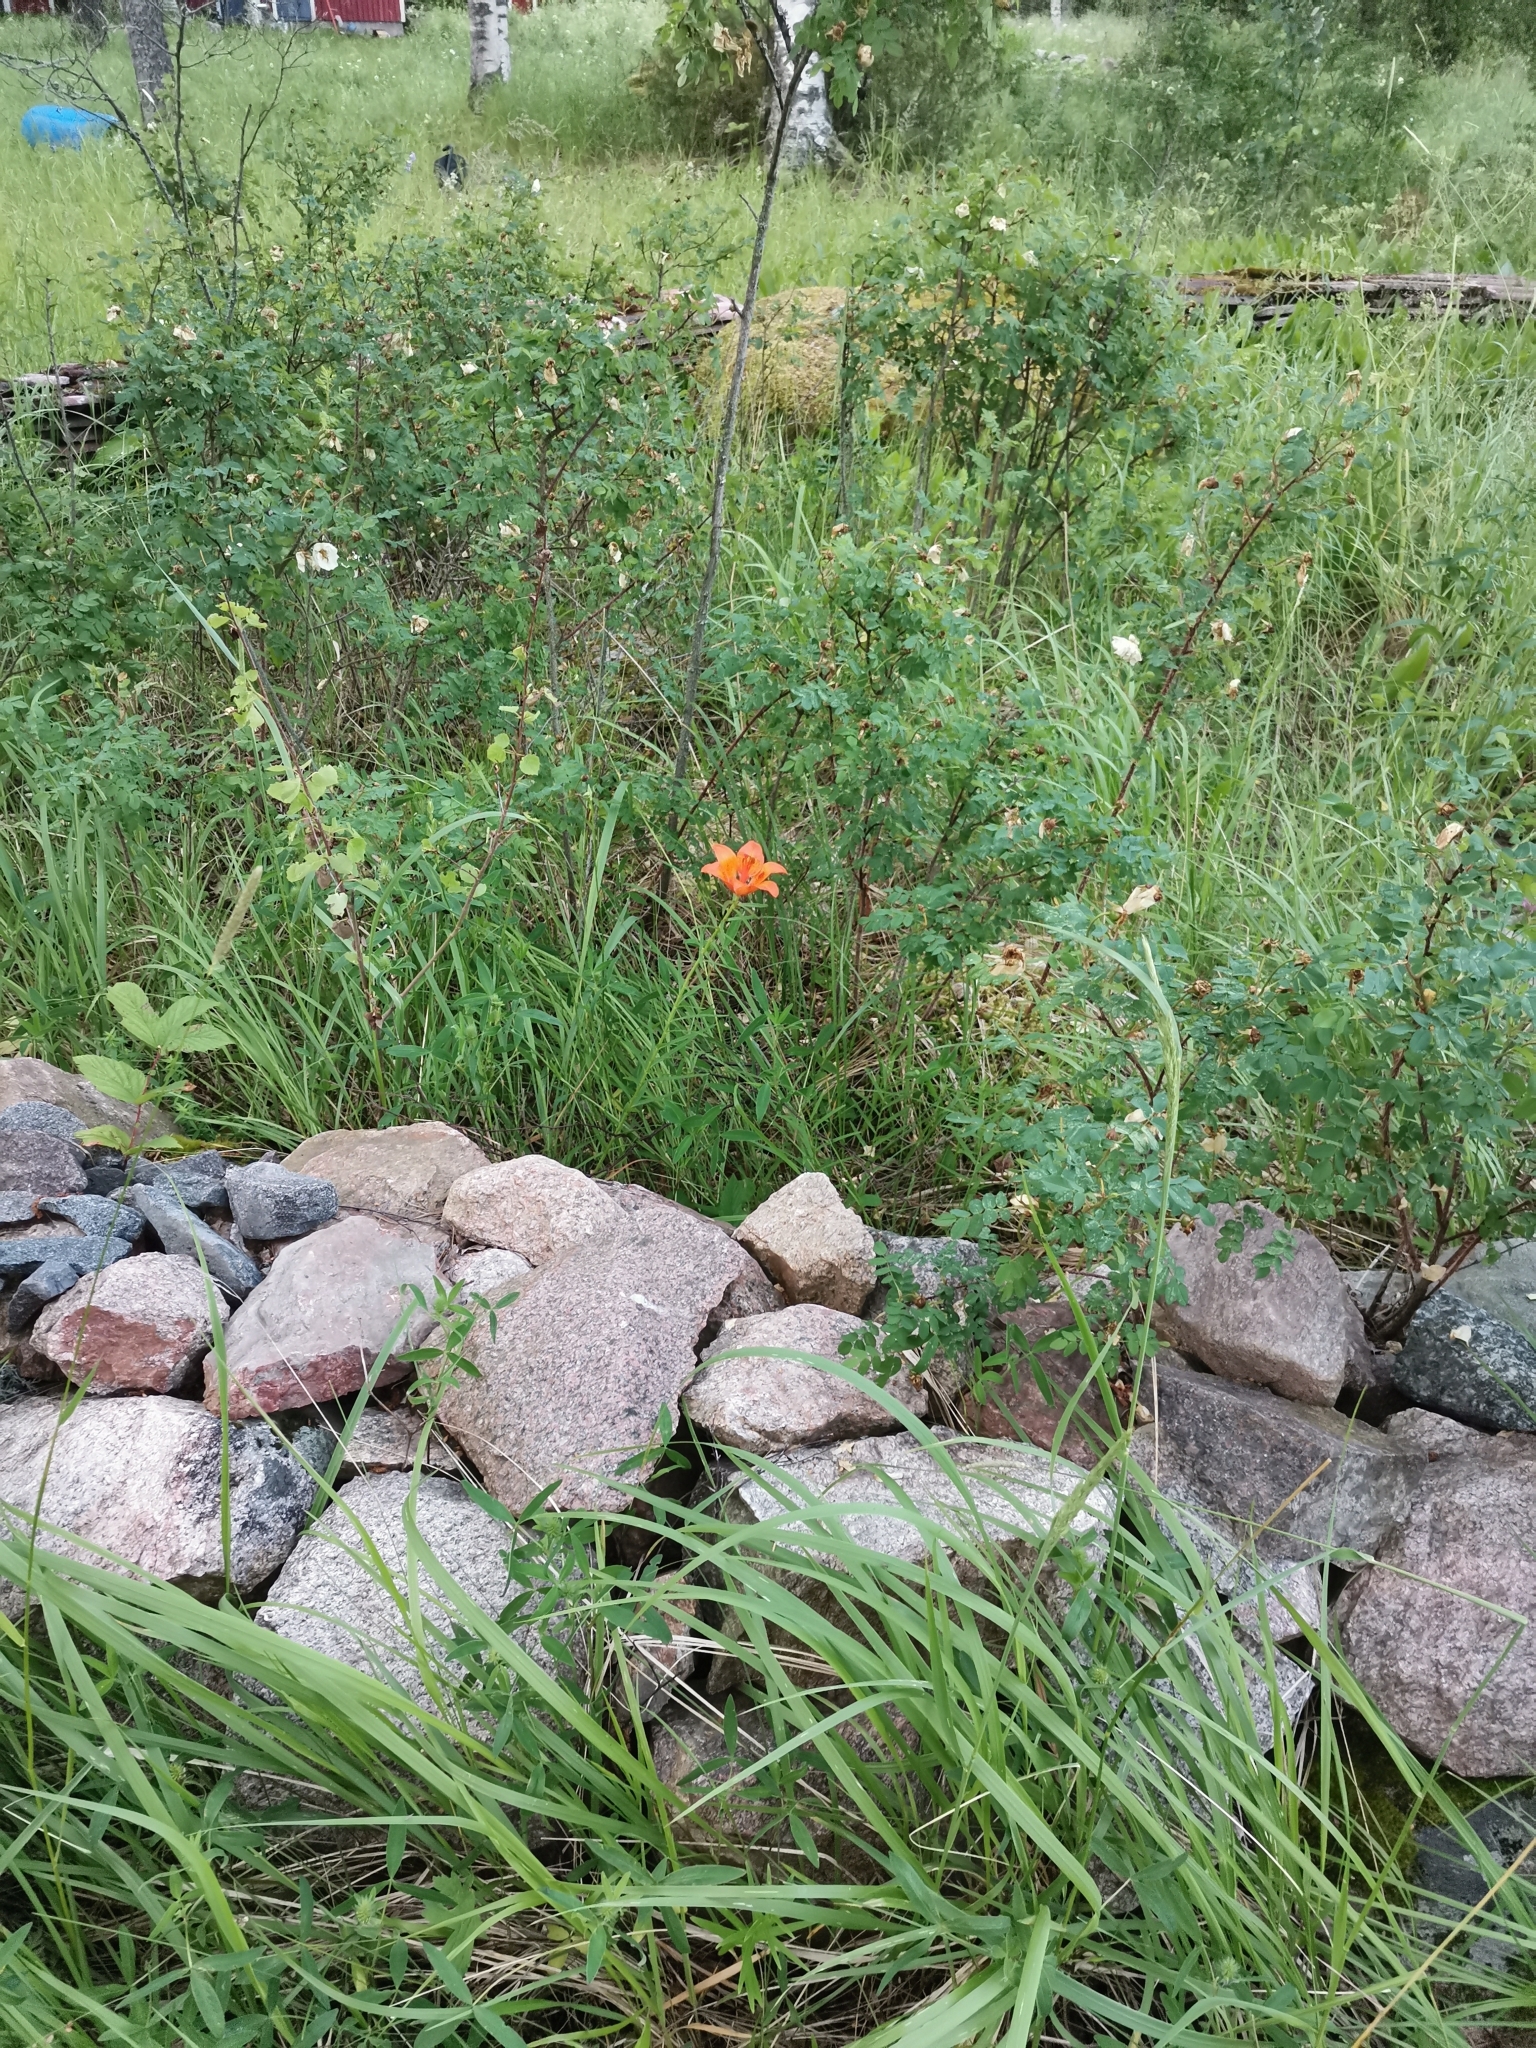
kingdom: Plantae
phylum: Tracheophyta
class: Liliopsida
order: Liliales
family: Liliaceae
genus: Lilium
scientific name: Lilium bulbiferum
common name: Orange lily
